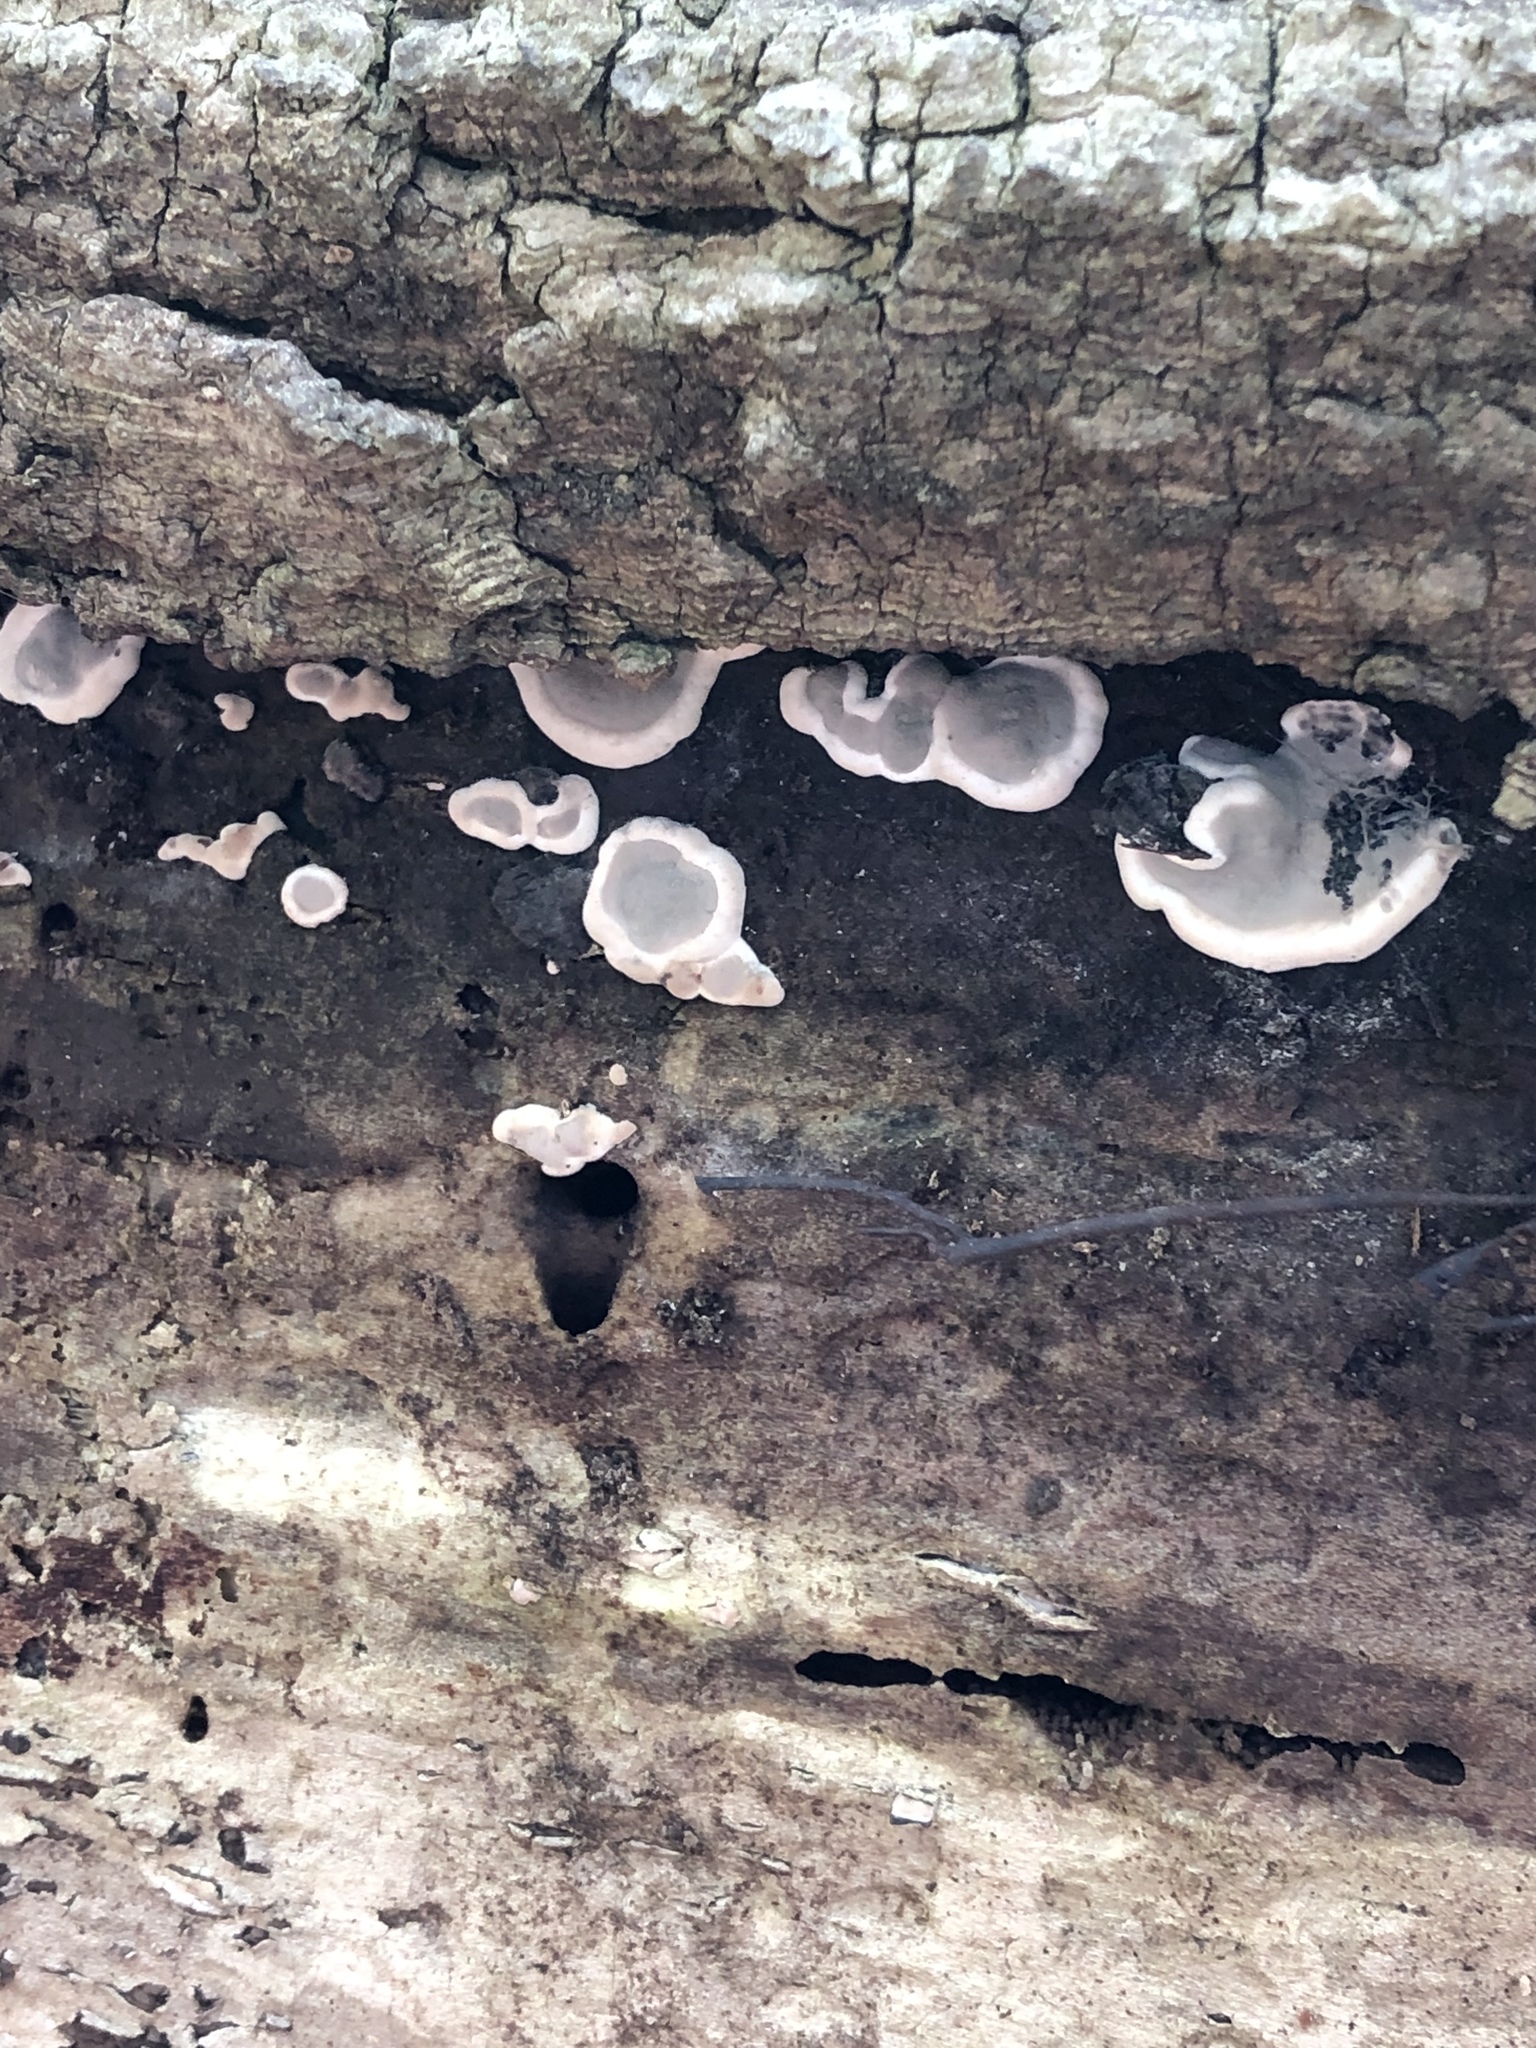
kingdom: Fungi
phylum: Ascomycota
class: Sordariomycetes
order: Xylariales
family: Xylariaceae
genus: Kretzschmaria
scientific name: Kretzschmaria deusta
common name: Brittle cinder
